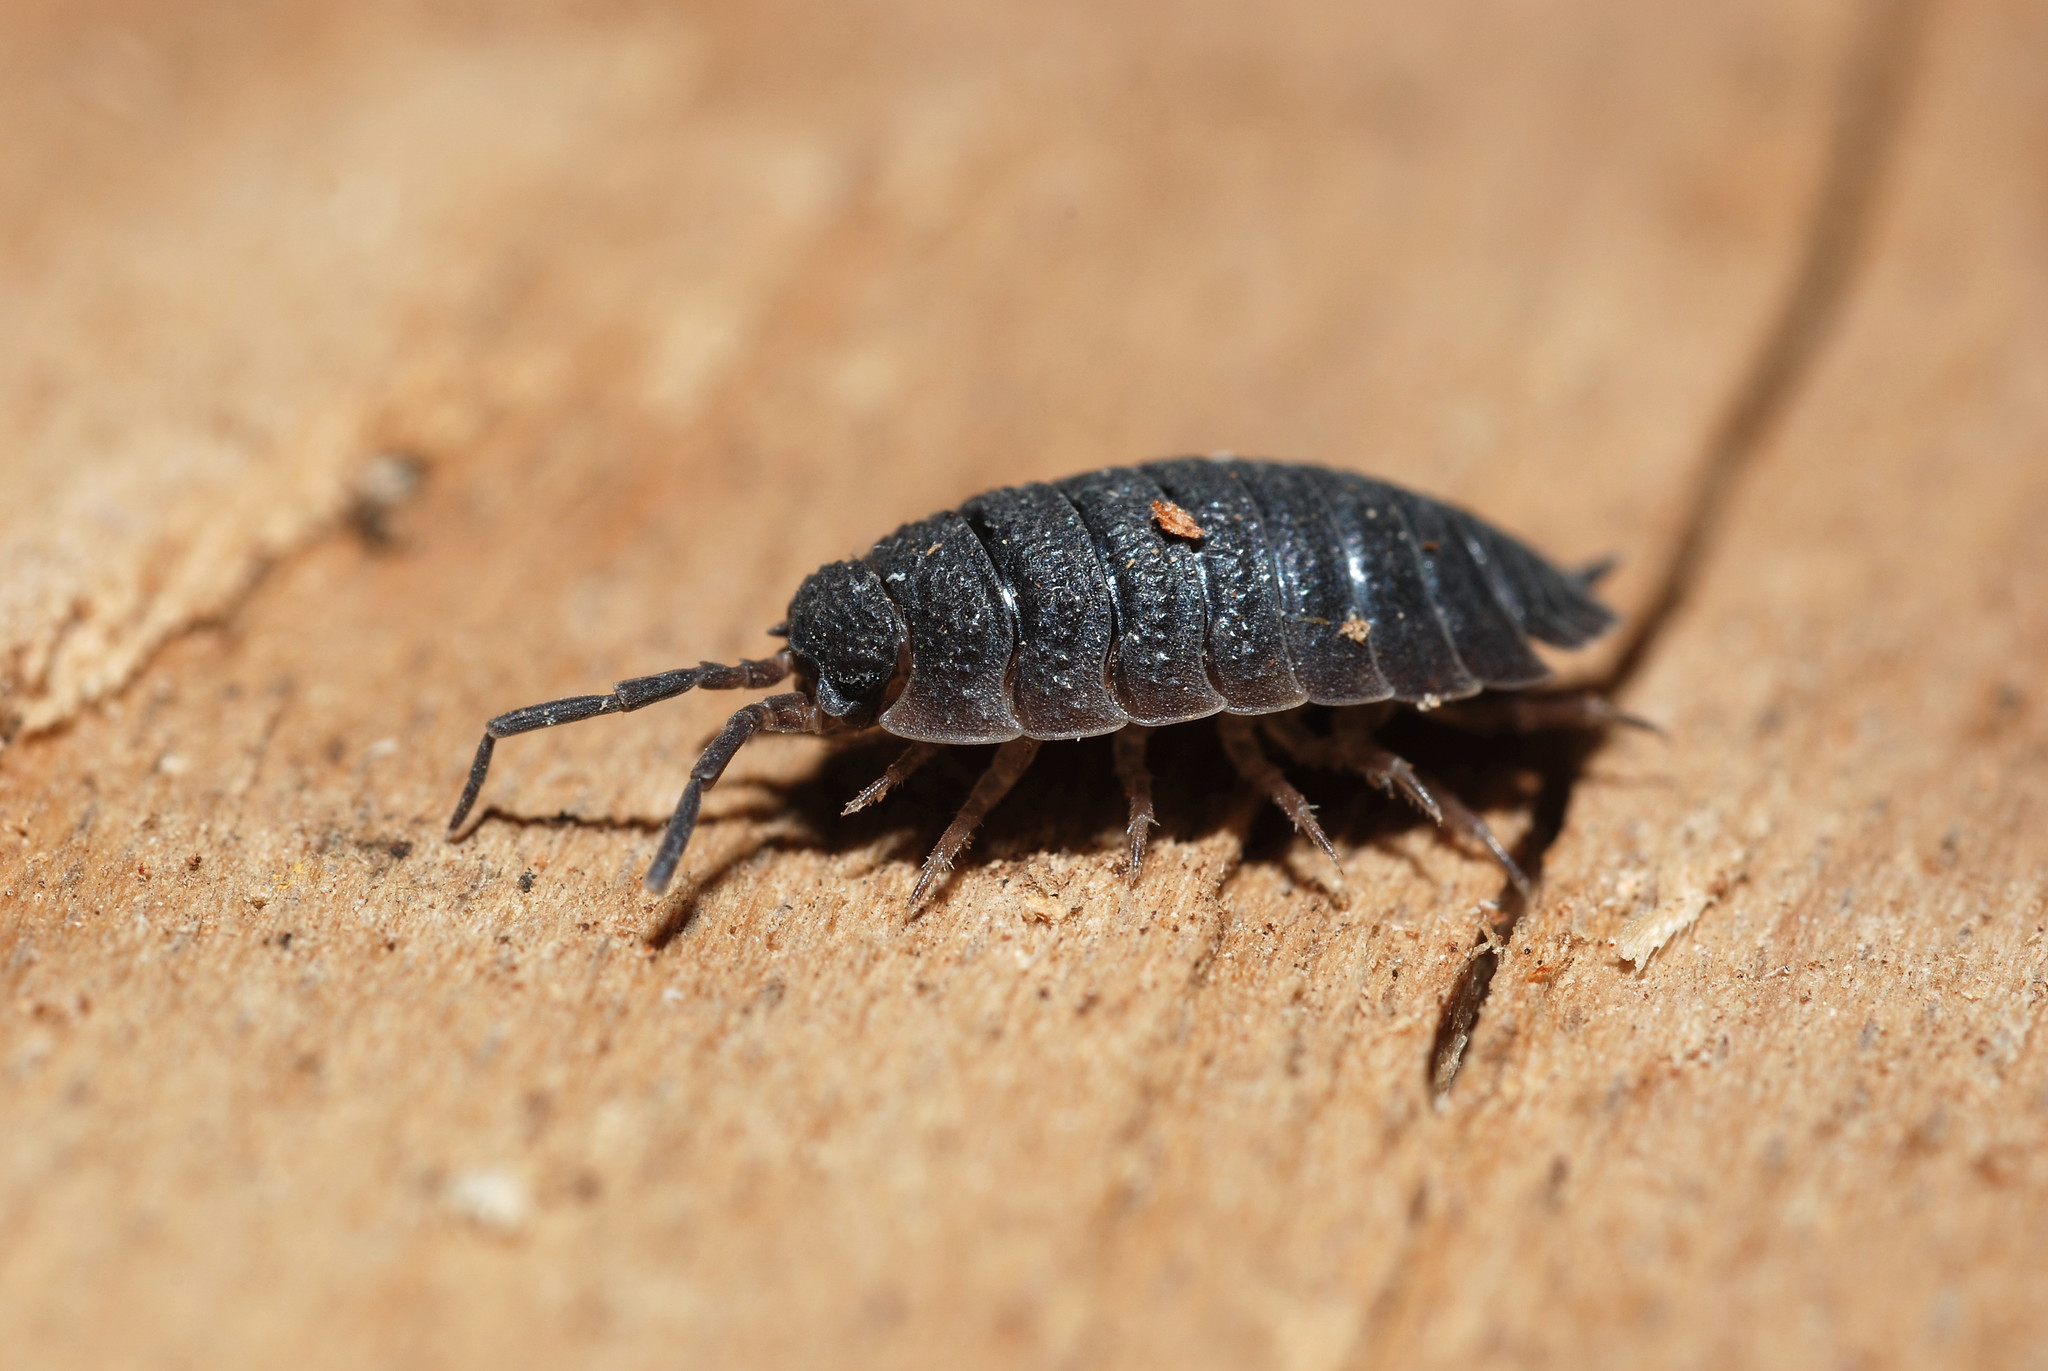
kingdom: Animalia
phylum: Arthropoda
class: Malacostraca
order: Isopoda
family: Porcellionidae
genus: Porcellio
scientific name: Porcellio scaber
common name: Common rough woodlouse
